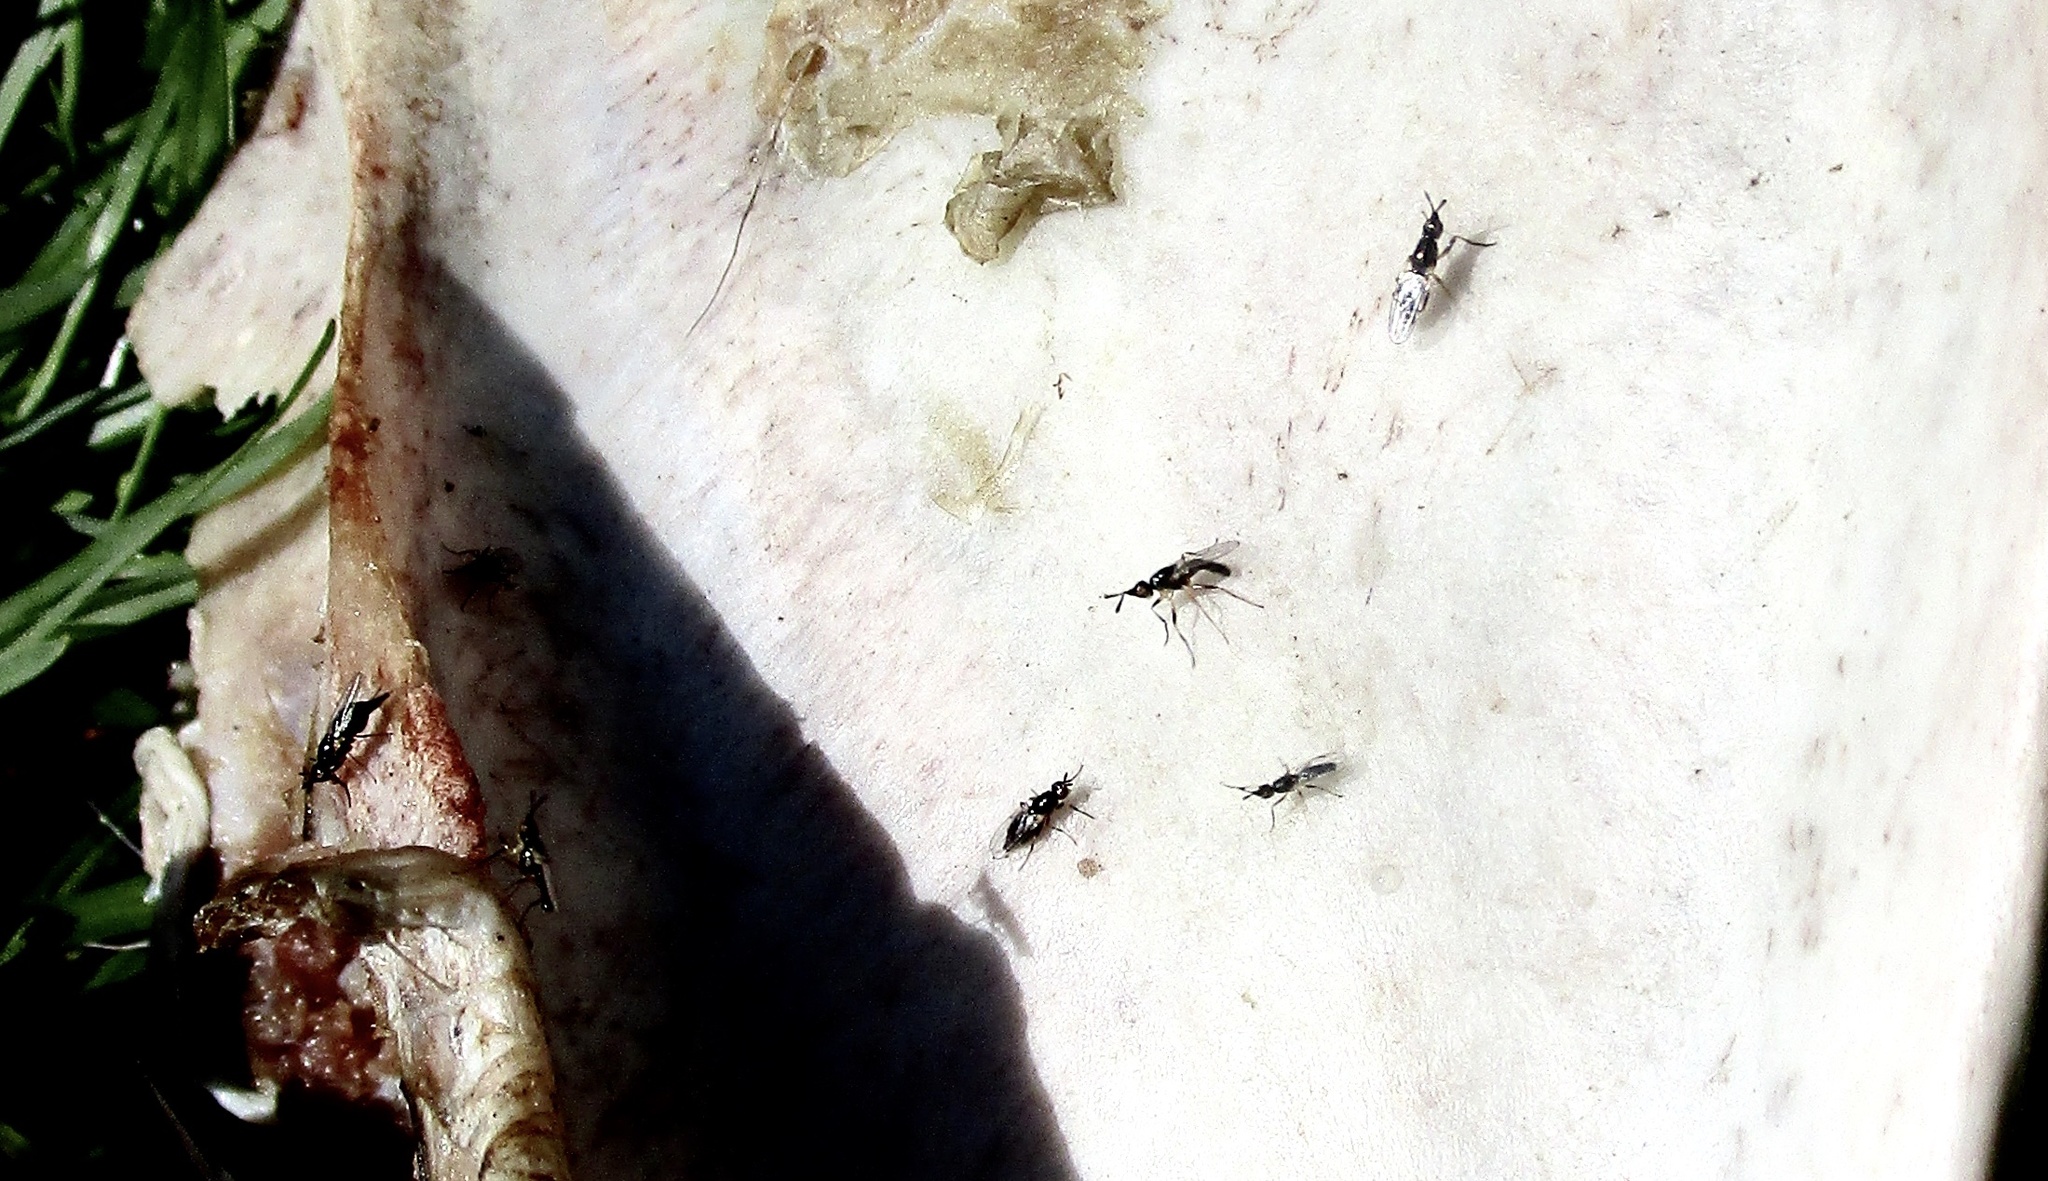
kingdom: Animalia
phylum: Arthropoda
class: Insecta
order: Diptera
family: Piophilidae
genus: Prochyliza
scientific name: Prochyliza xanthostoma
